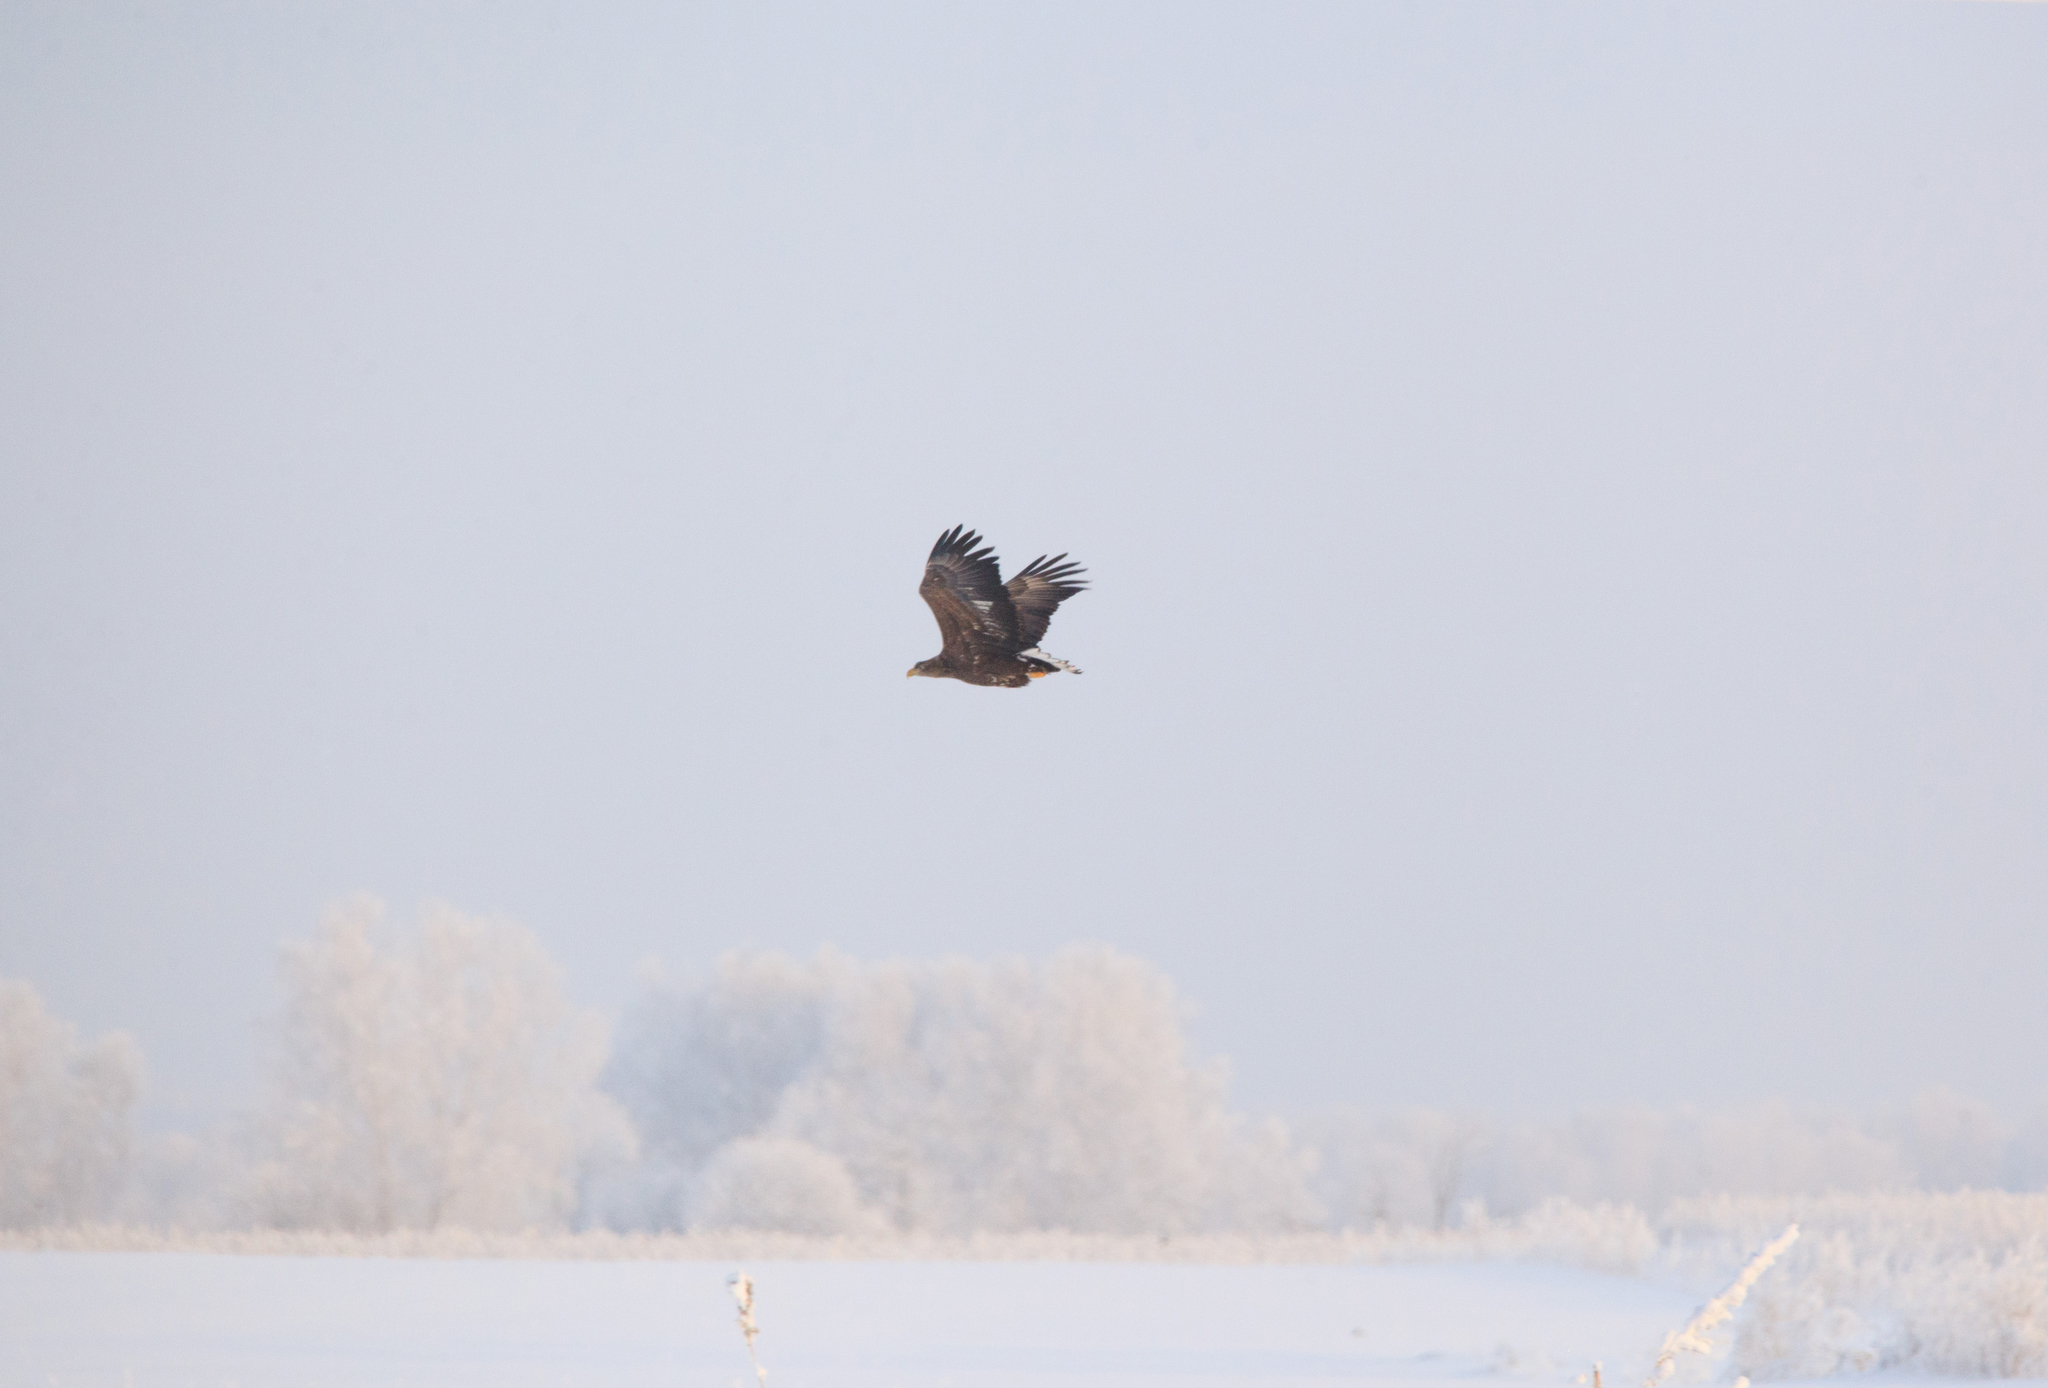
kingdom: Animalia
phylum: Chordata
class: Aves
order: Accipitriformes
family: Accipitridae
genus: Haliaeetus
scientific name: Haliaeetus albicilla
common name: White-tailed eagle
